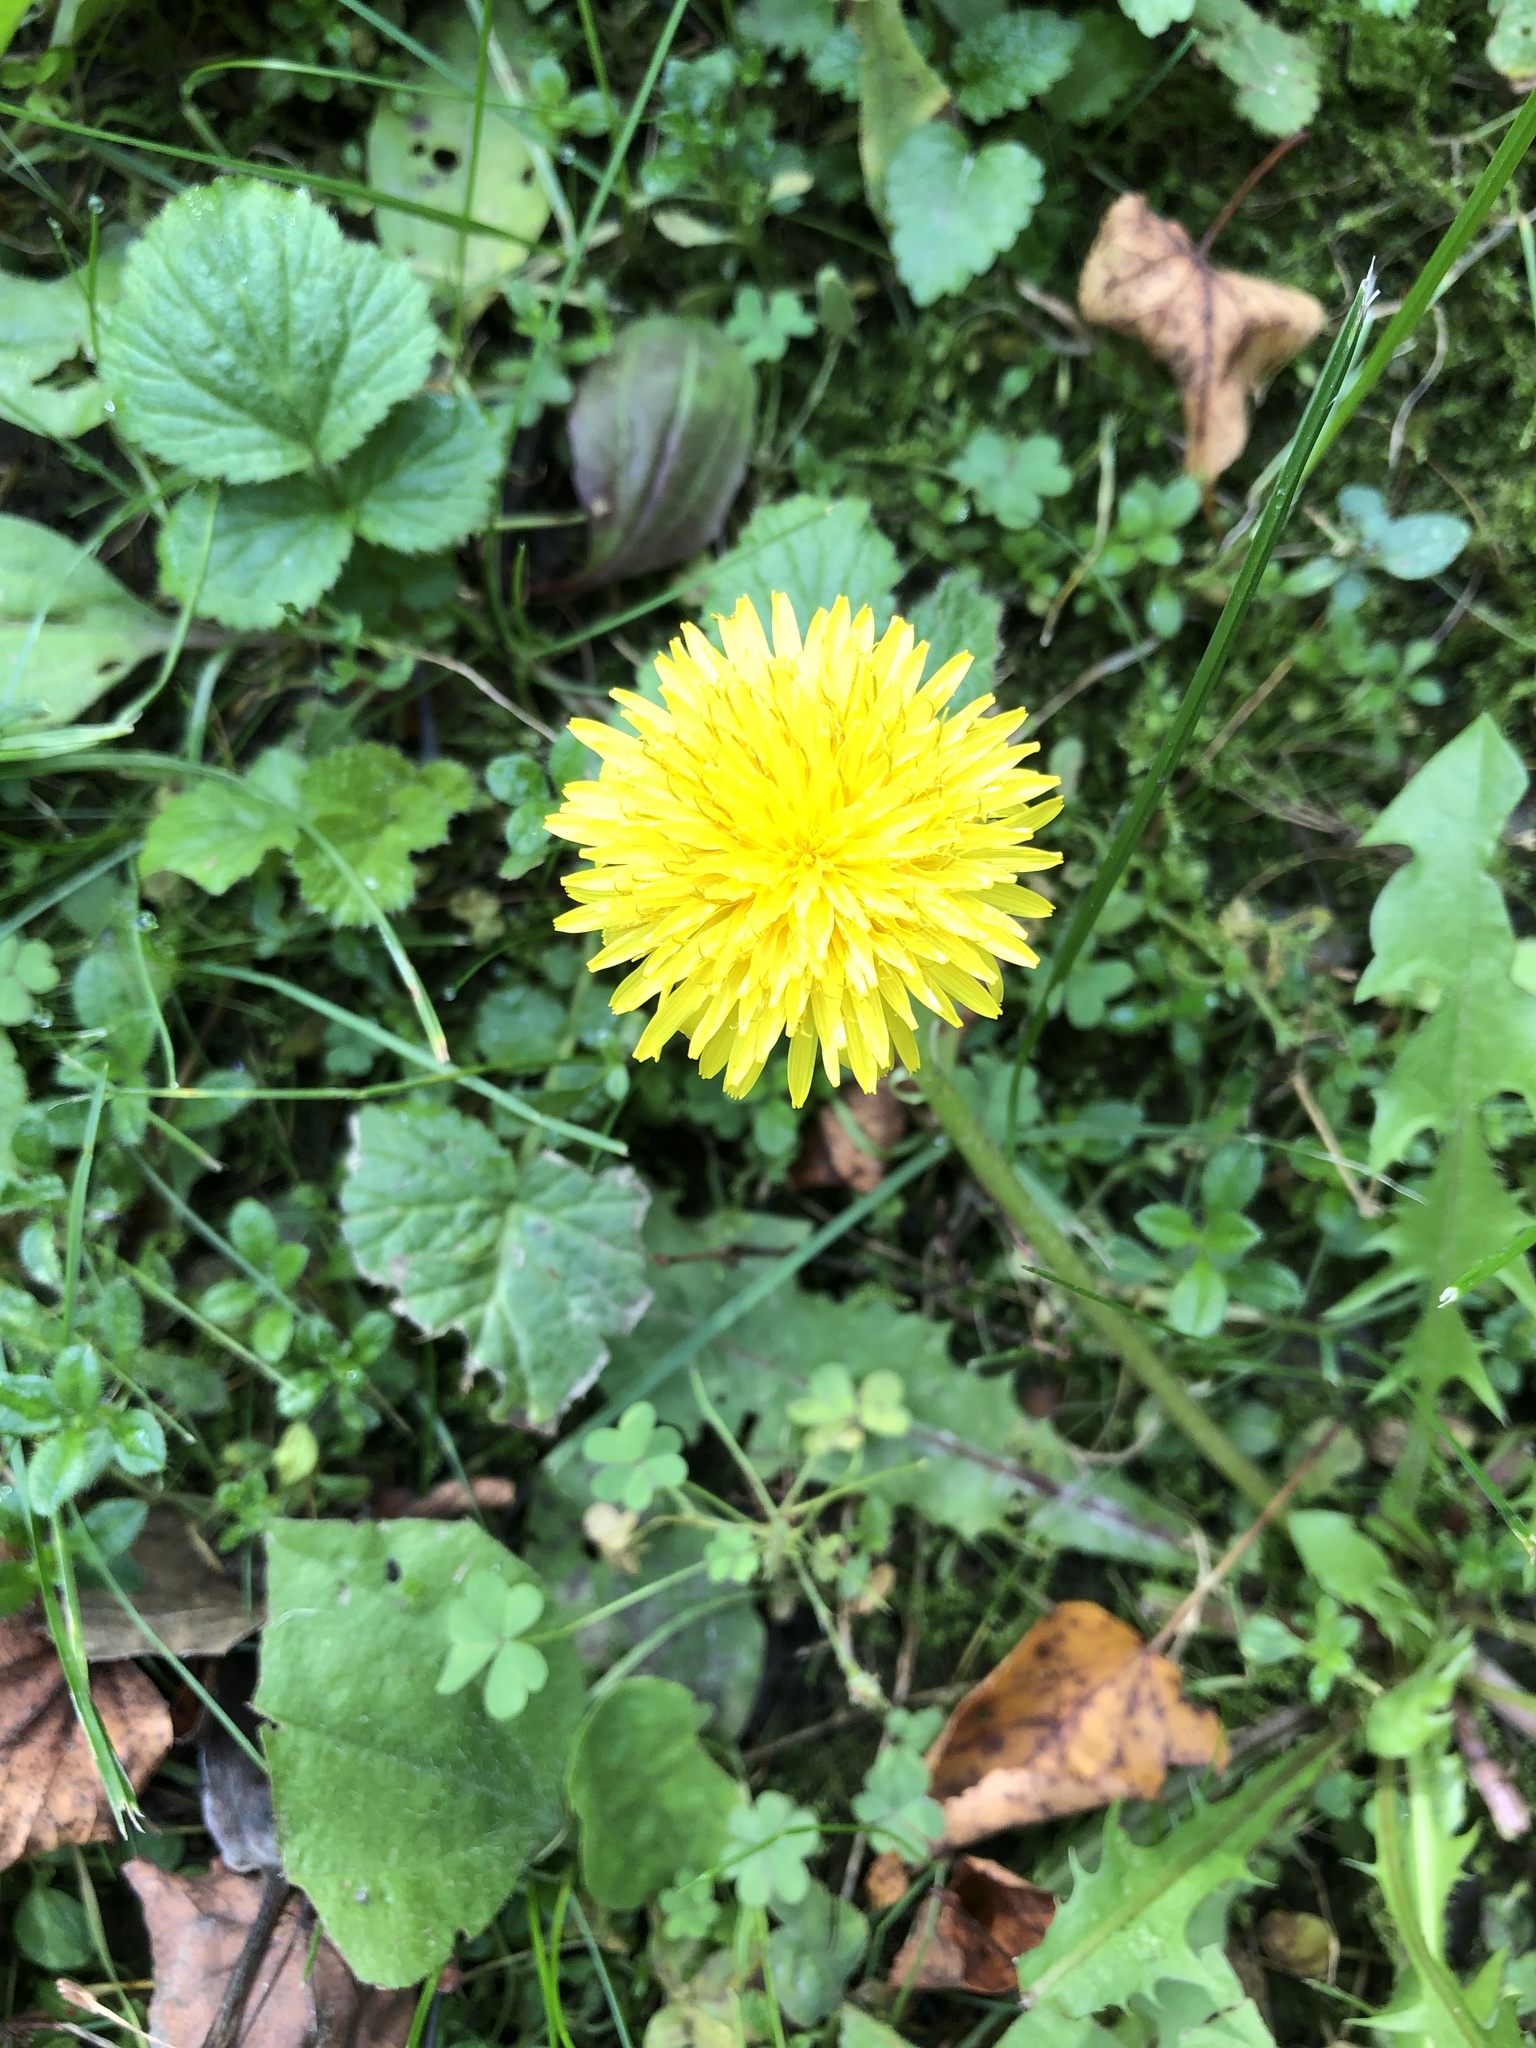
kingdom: Plantae
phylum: Tracheophyta
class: Magnoliopsida
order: Asterales
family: Asteraceae
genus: Taraxacum
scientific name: Taraxacum officinale
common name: Common dandelion
